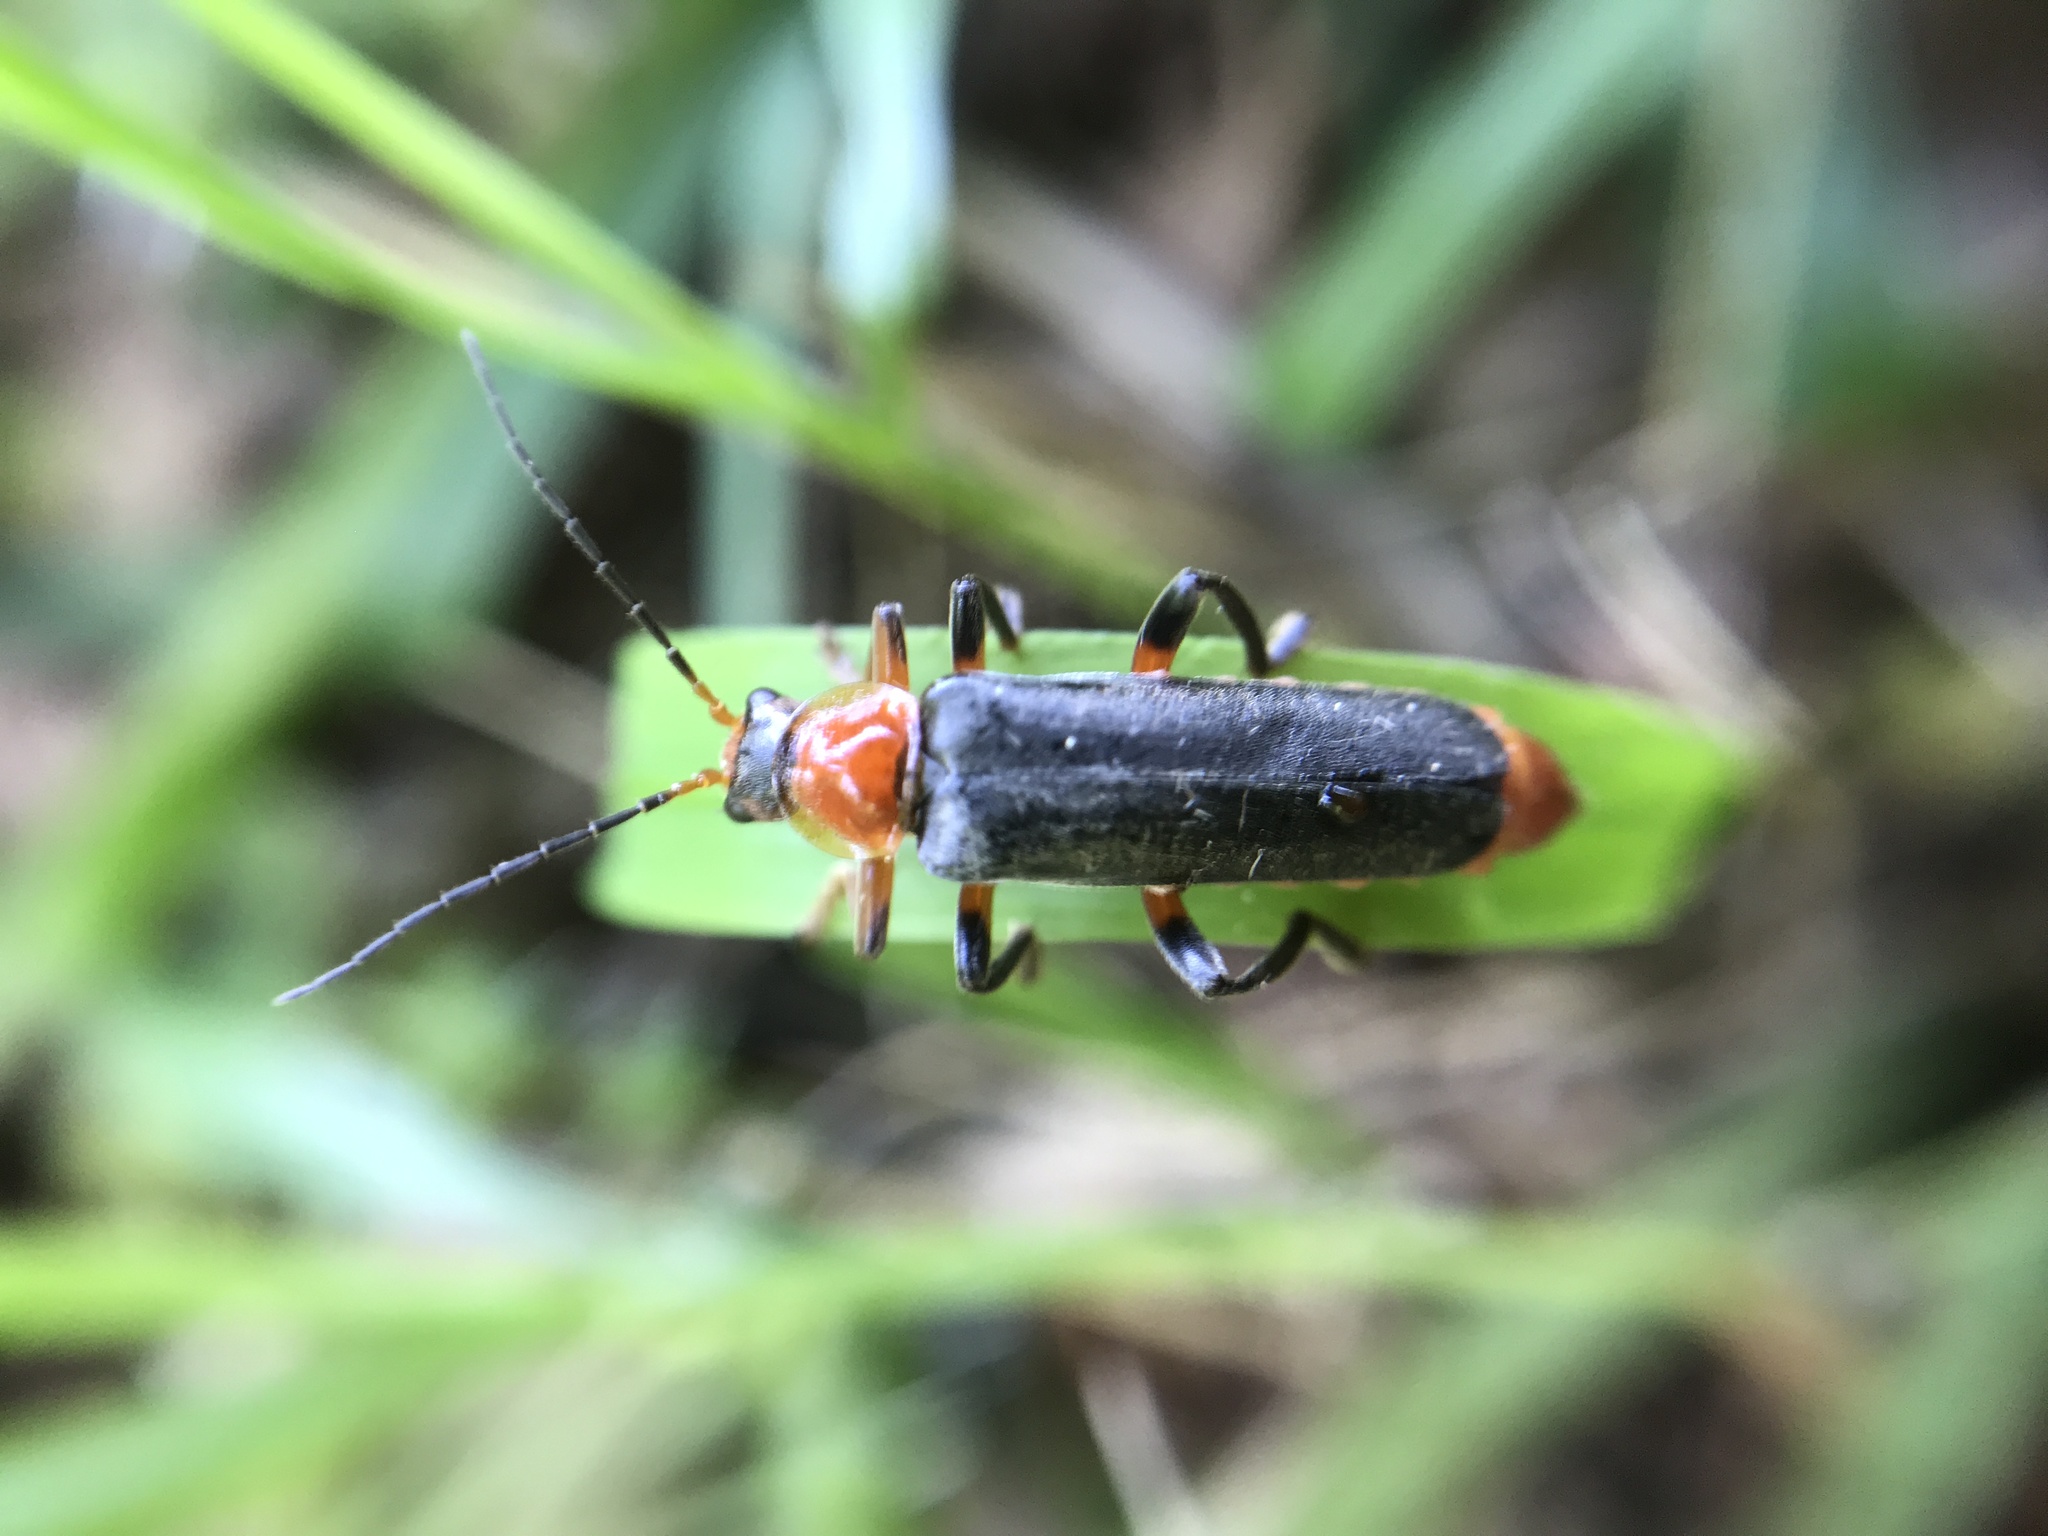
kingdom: Animalia
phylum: Arthropoda
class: Insecta
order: Coleoptera
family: Cantharidae
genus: Cantharis
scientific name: Cantharis livida
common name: Livid soldier beetle
